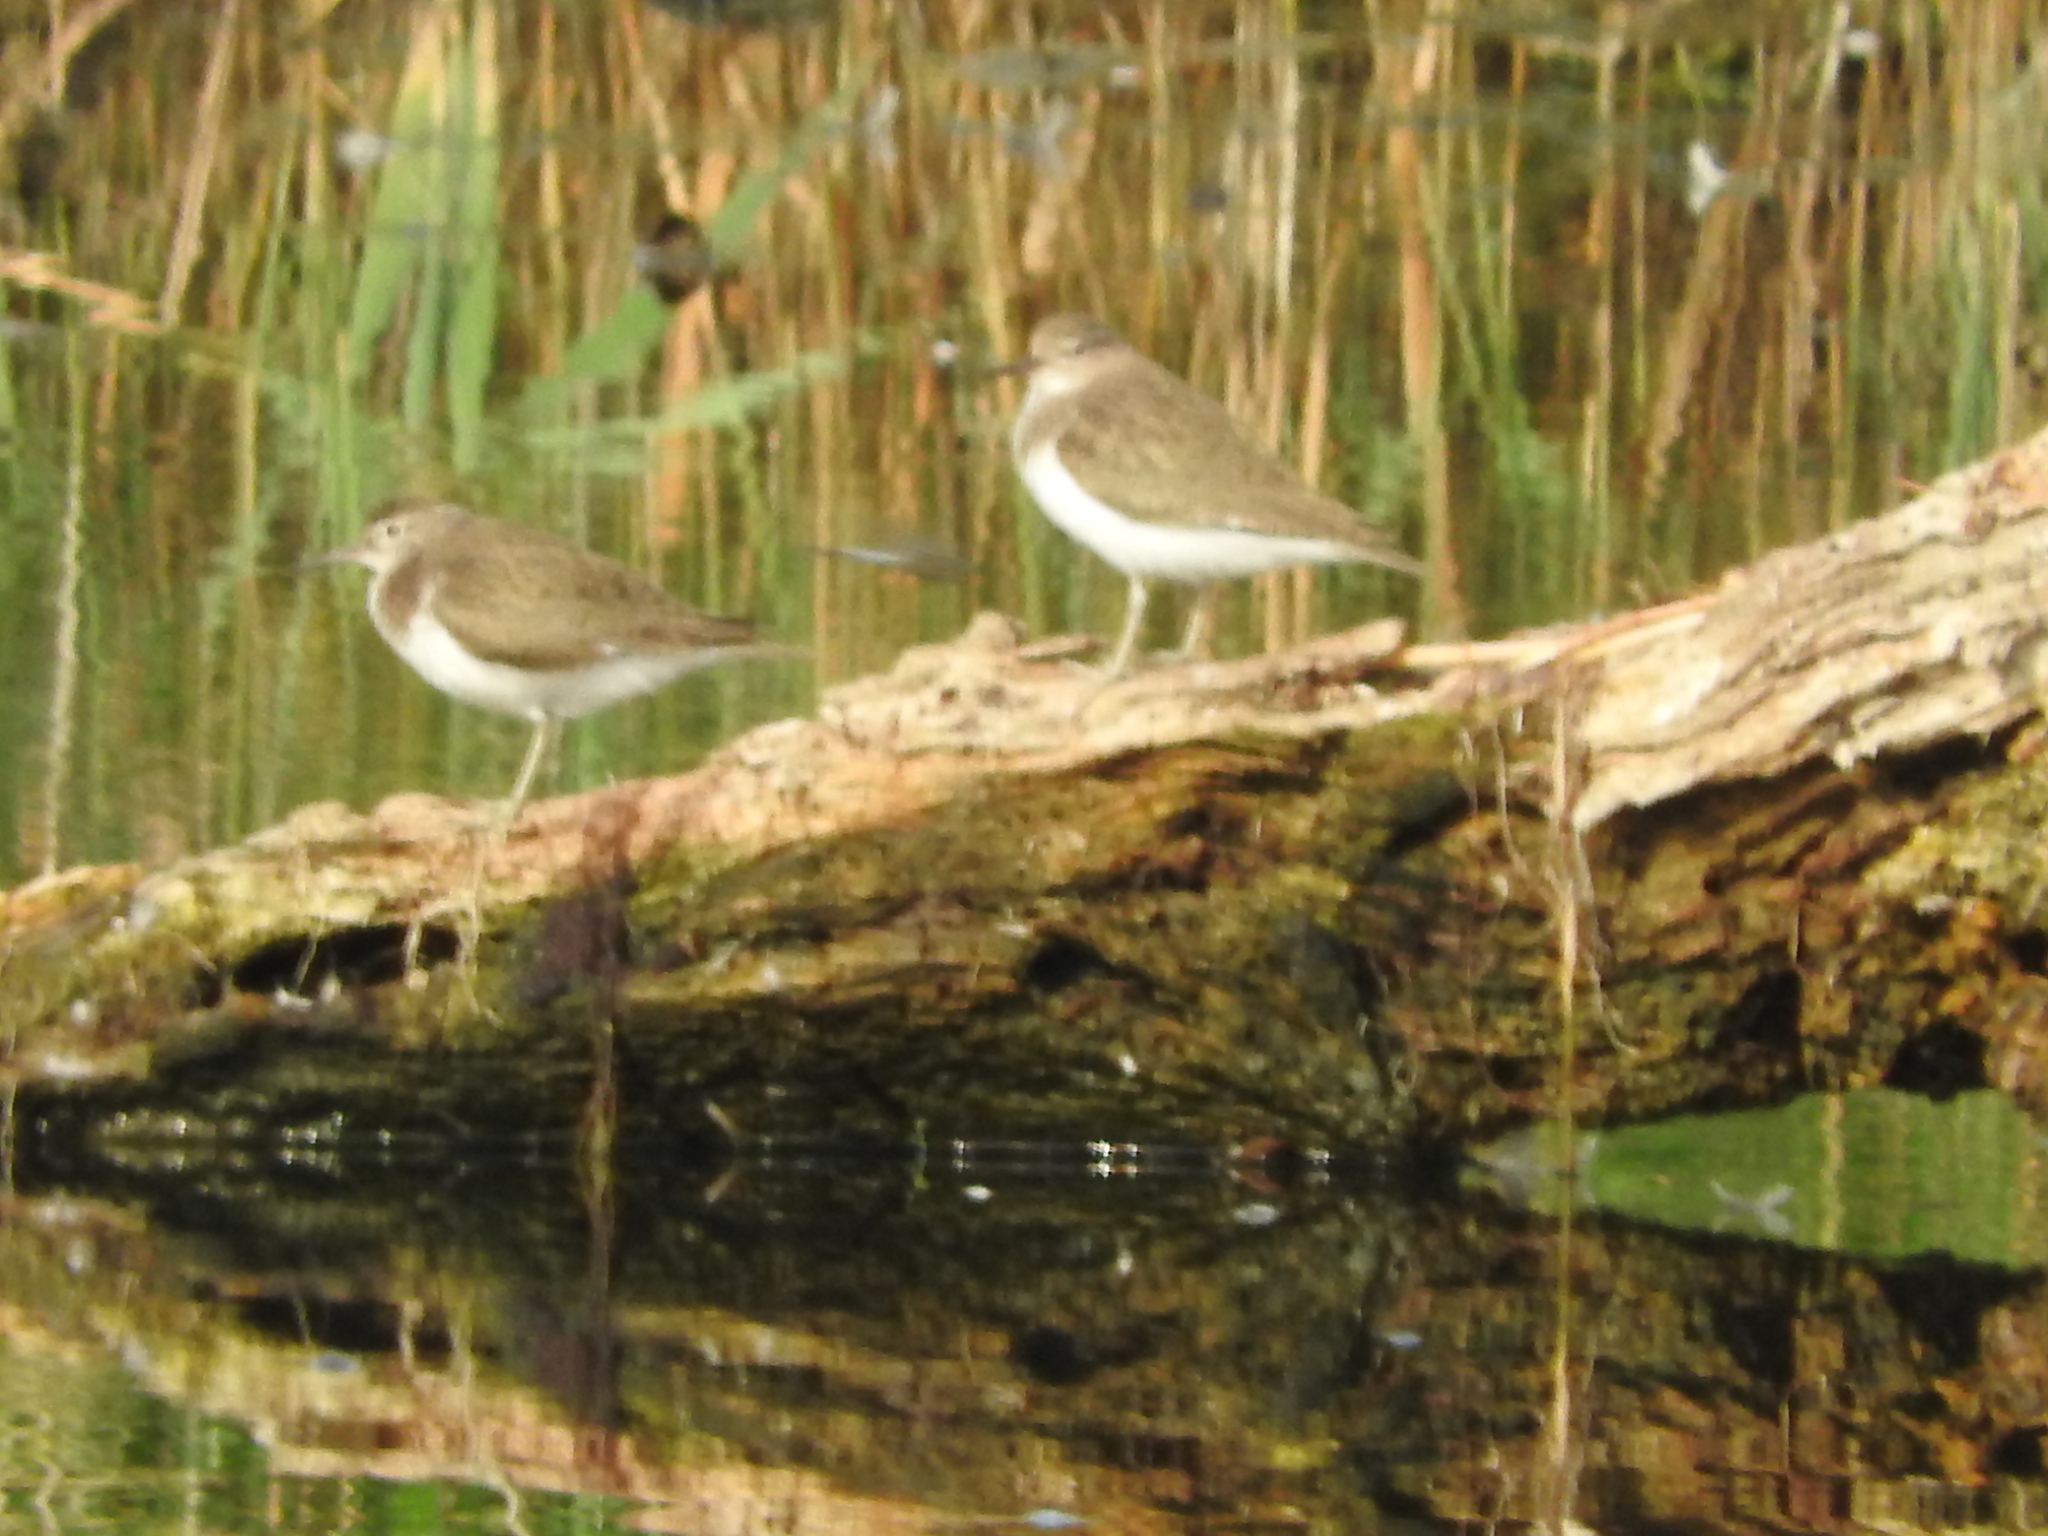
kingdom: Animalia
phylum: Chordata
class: Aves
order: Charadriiformes
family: Scolopacidae
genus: Actitis
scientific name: Actitis hypoleucos
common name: Common sandpiper
